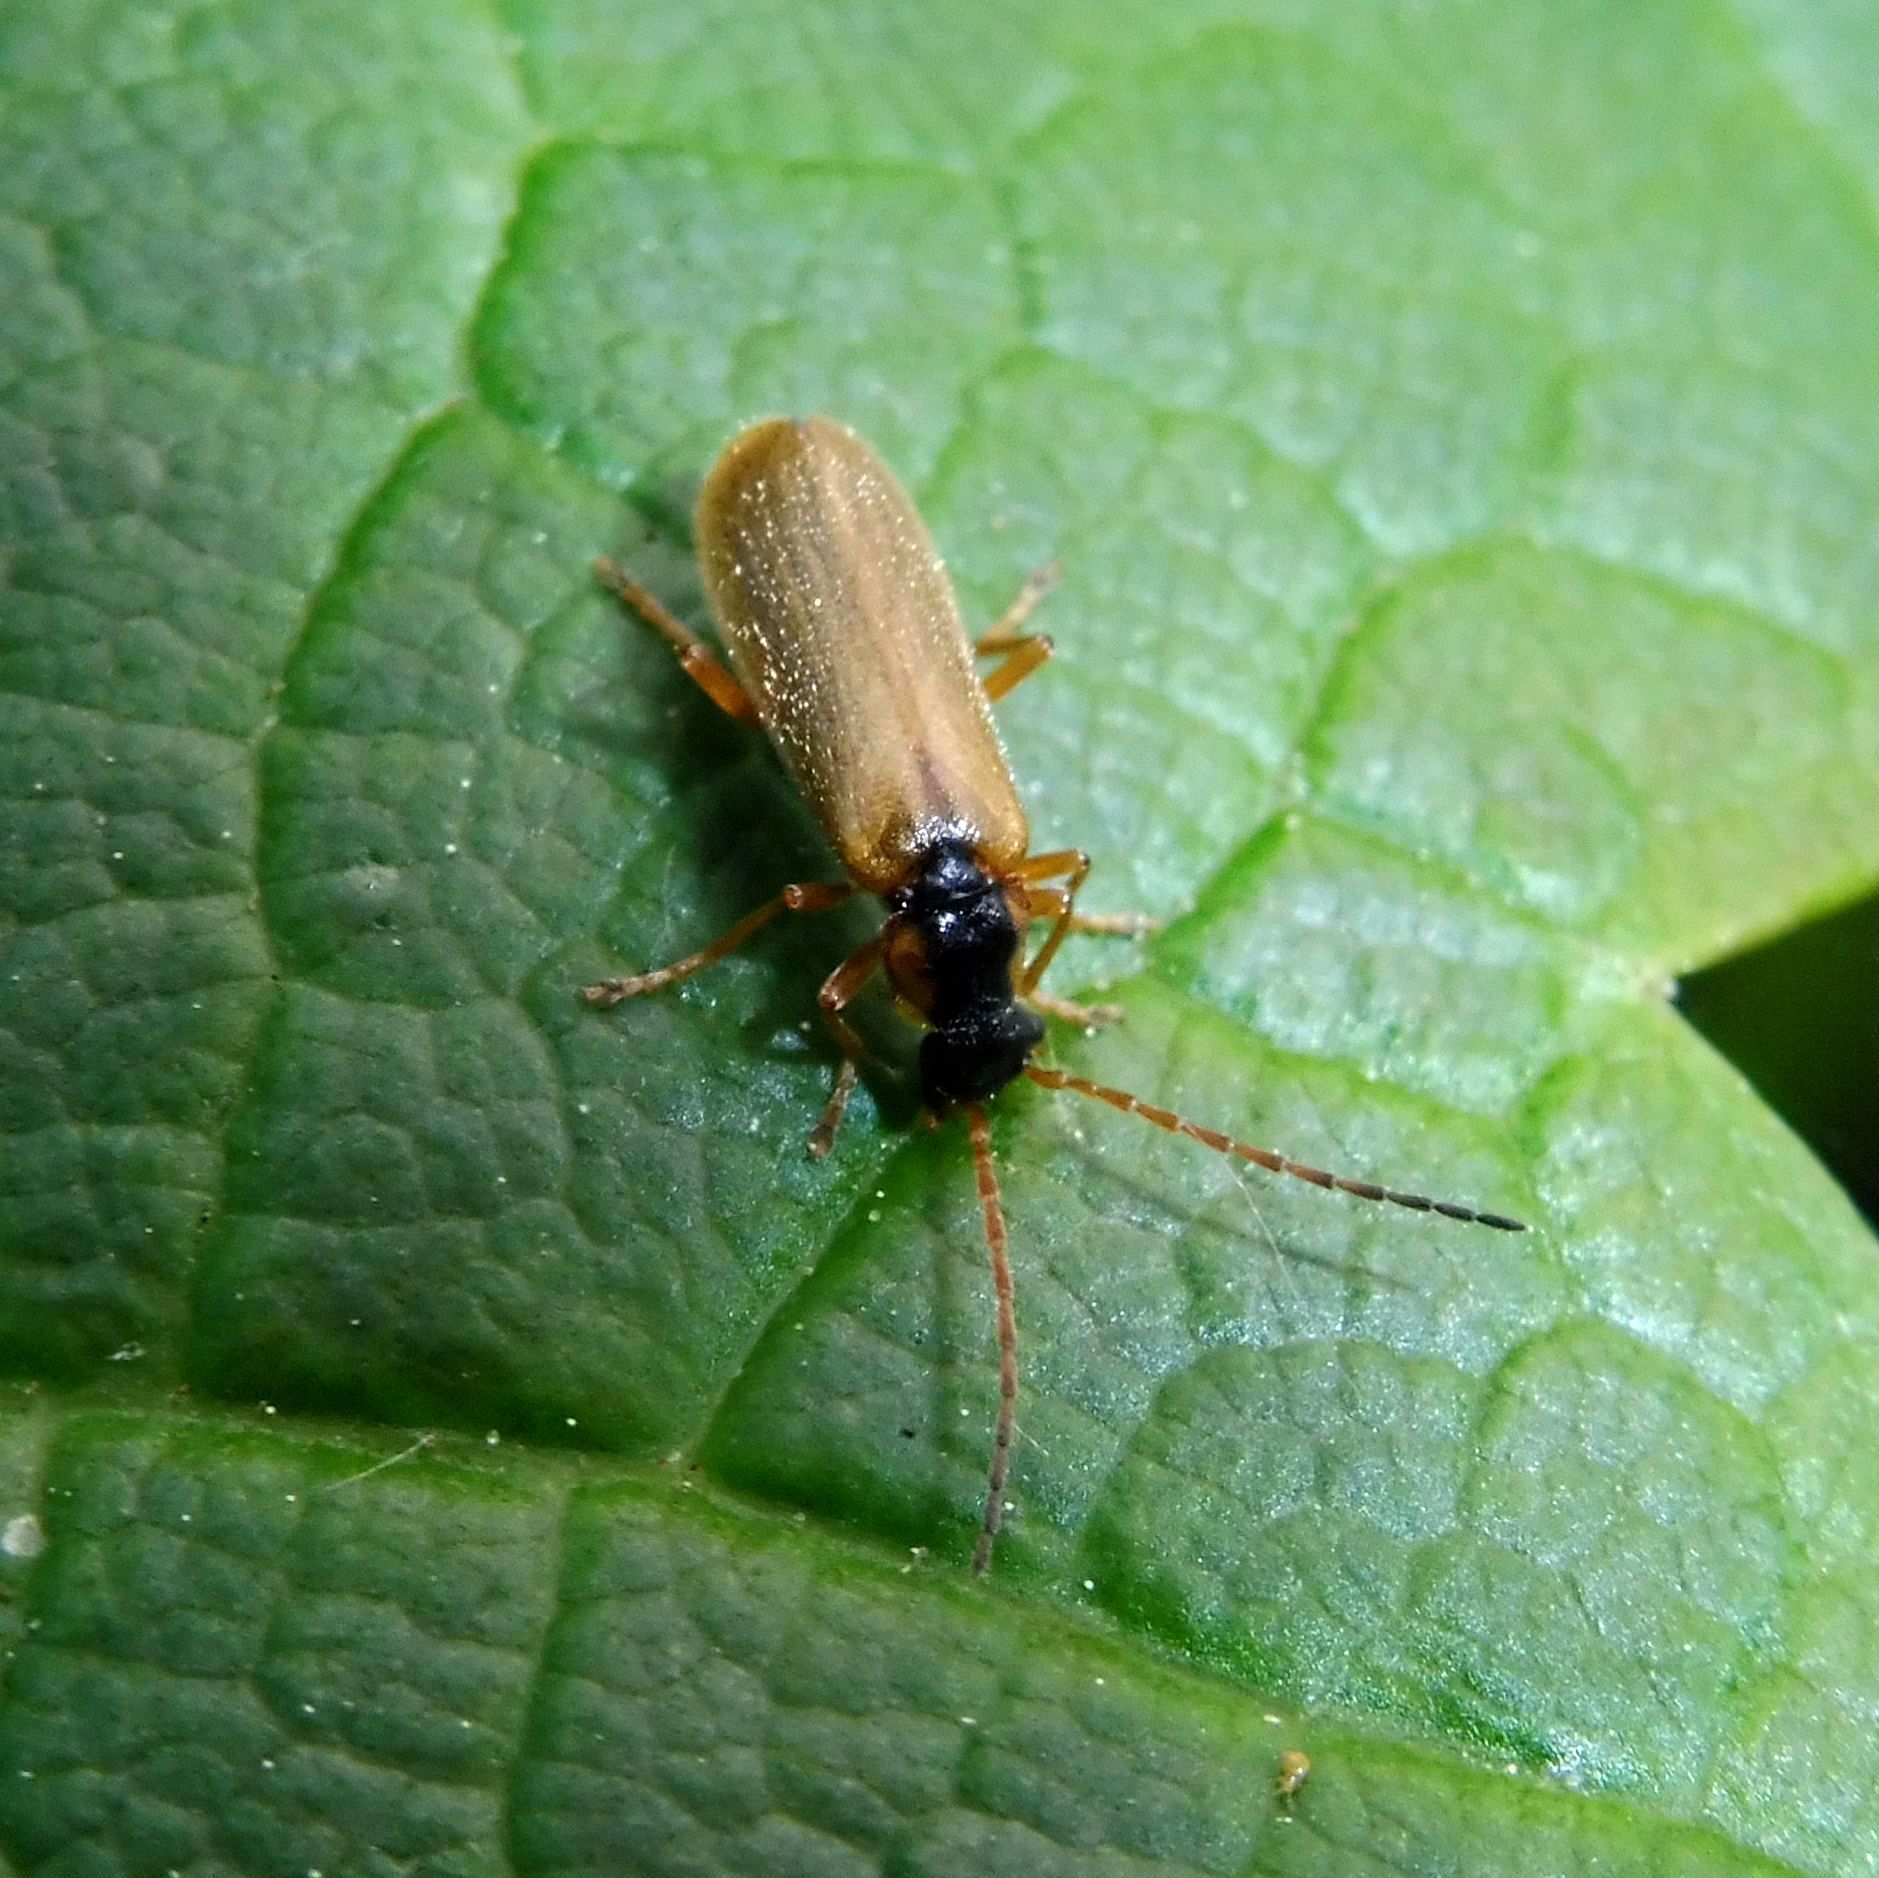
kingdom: Animalia
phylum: Arthropoda
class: Insecta
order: Coleoptera
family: Cantharidae
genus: Rhagonycha
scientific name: Rhagonycha testacea
